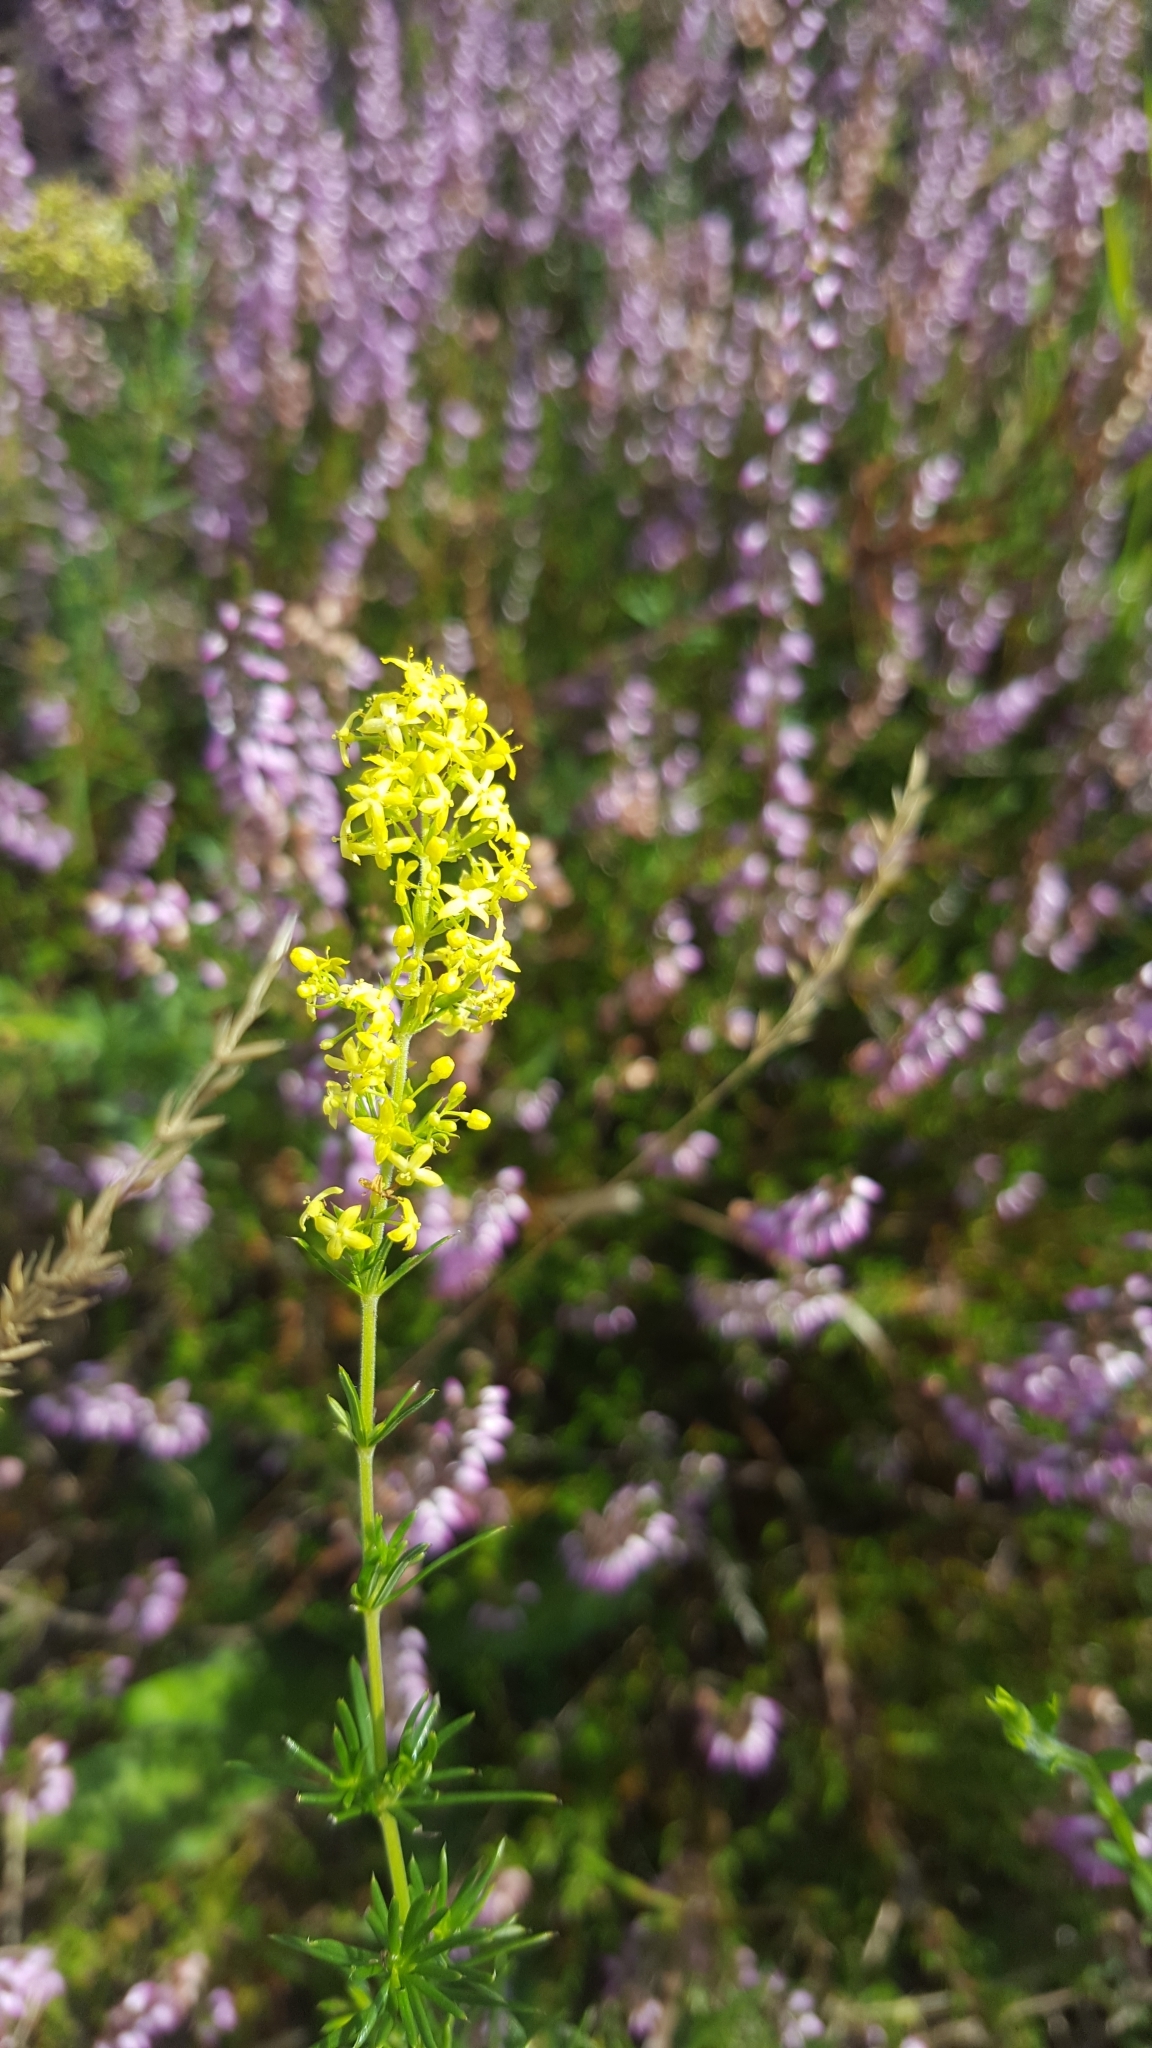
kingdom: Plantae
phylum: Tracheophyta
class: Magnoliopsida
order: Gentianales
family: Rubiaceae
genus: Galium
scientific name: Galium verum
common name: Lady's bedstraw
